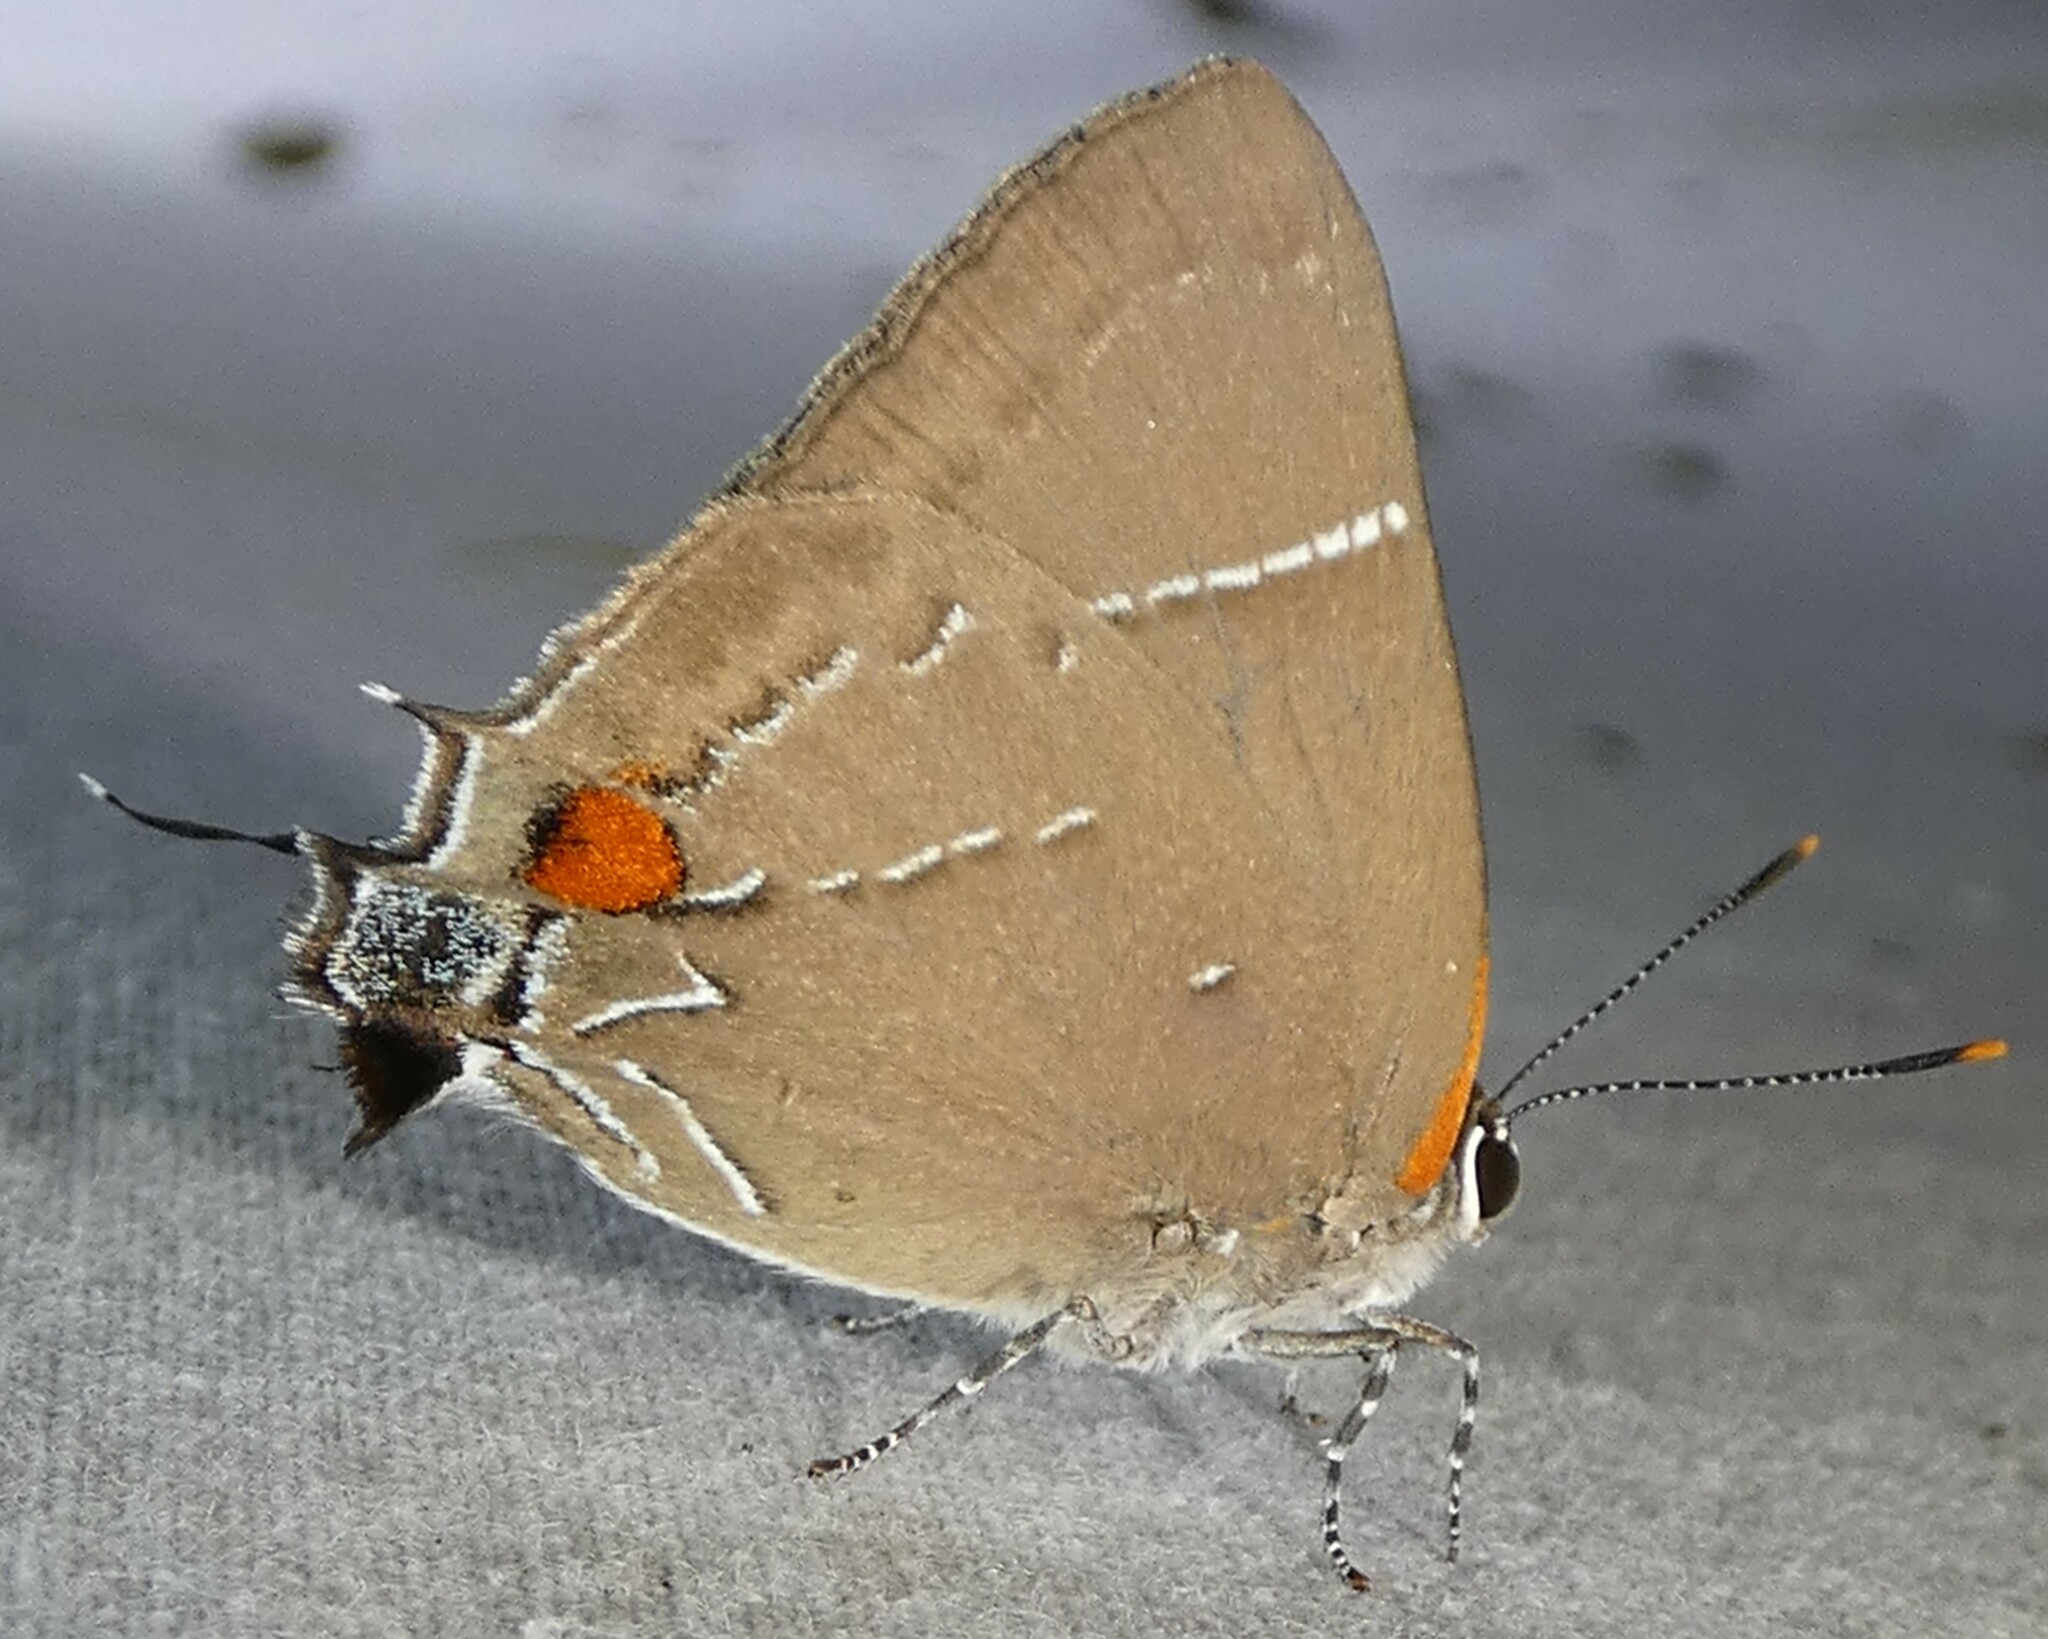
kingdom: Animalia
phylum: Arthropoda
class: Insecta
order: Lepidoptera
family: Lycaenidae
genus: Parrhasius
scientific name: Parrhasius m-album
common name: White m hairstreak
